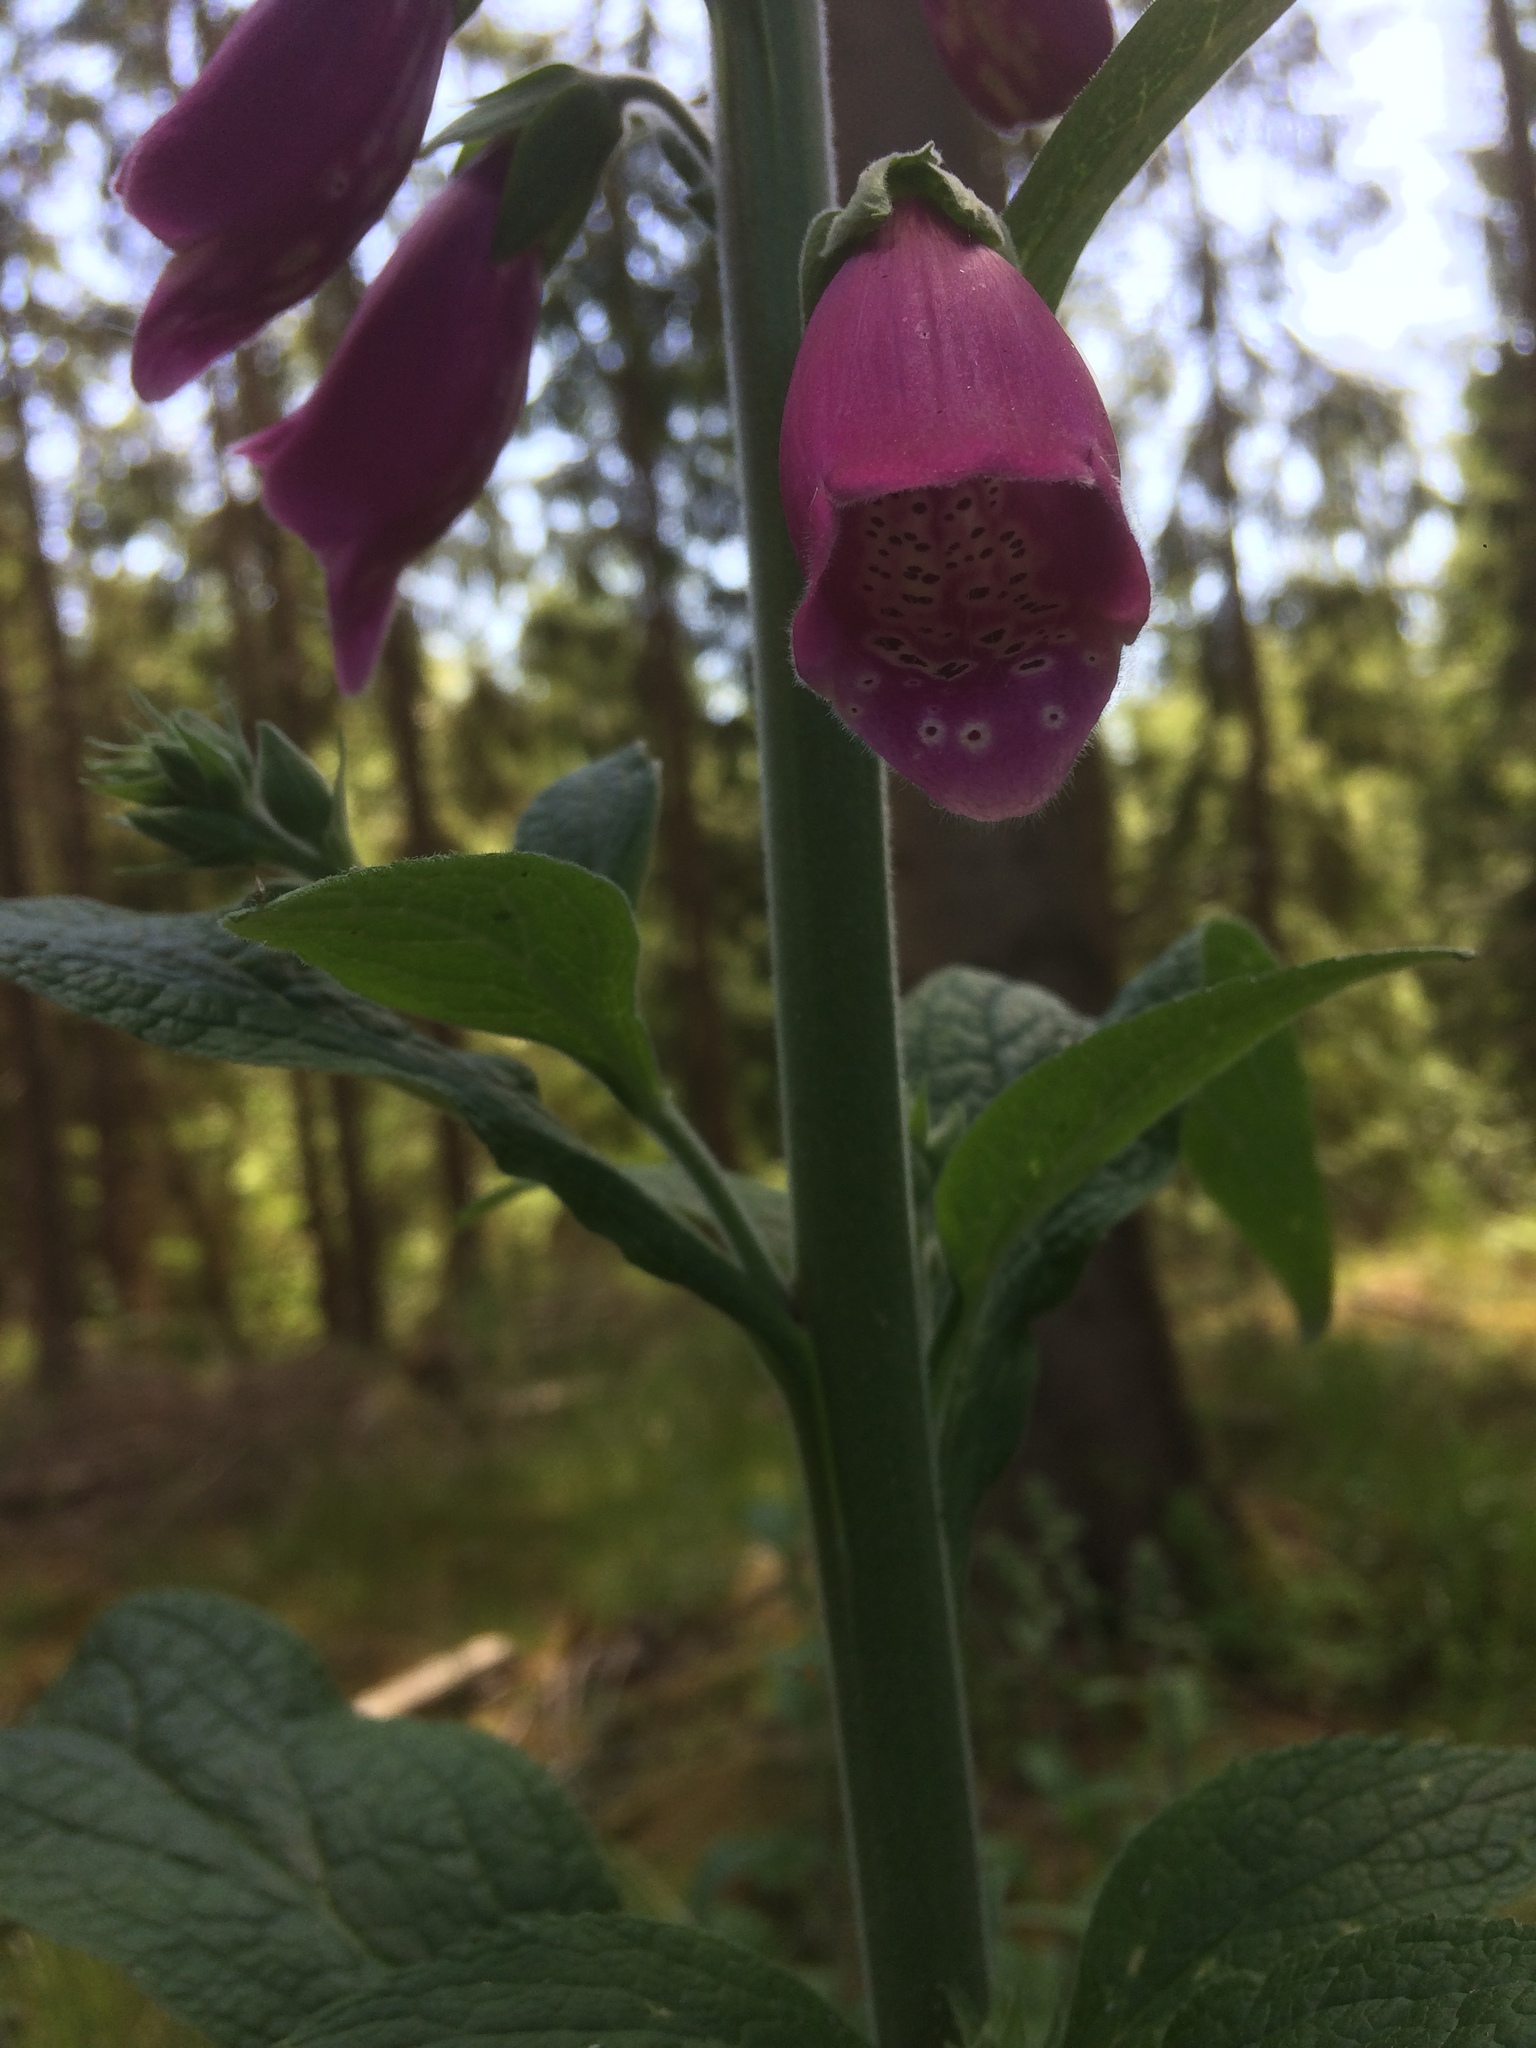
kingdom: Plantae
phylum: Tracheophyta
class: Magnoliopsida
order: Lamiales
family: Plantaginaceae
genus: Digitalis
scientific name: Digitalis purpurea
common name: Foxglove
